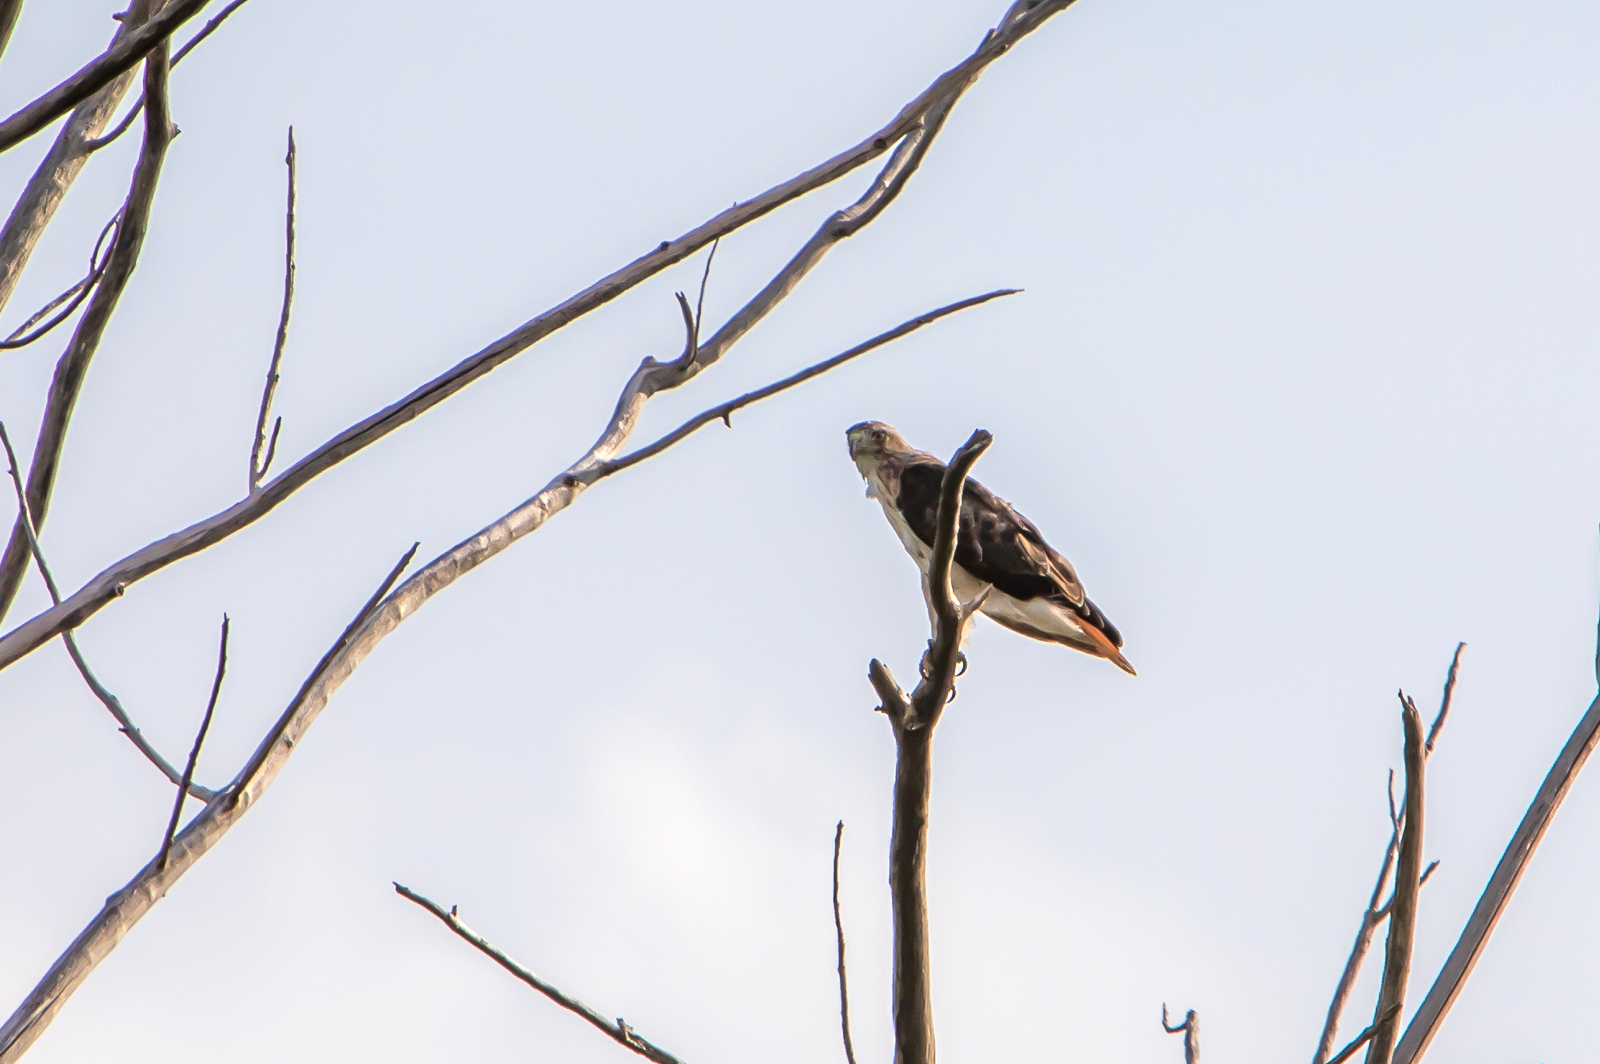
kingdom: Animalia
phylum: Chordata
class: Aves
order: Accipitriformes
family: Accipitridae
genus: Buteo
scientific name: Buteo jamaicensis
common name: Red-tailed hawk
